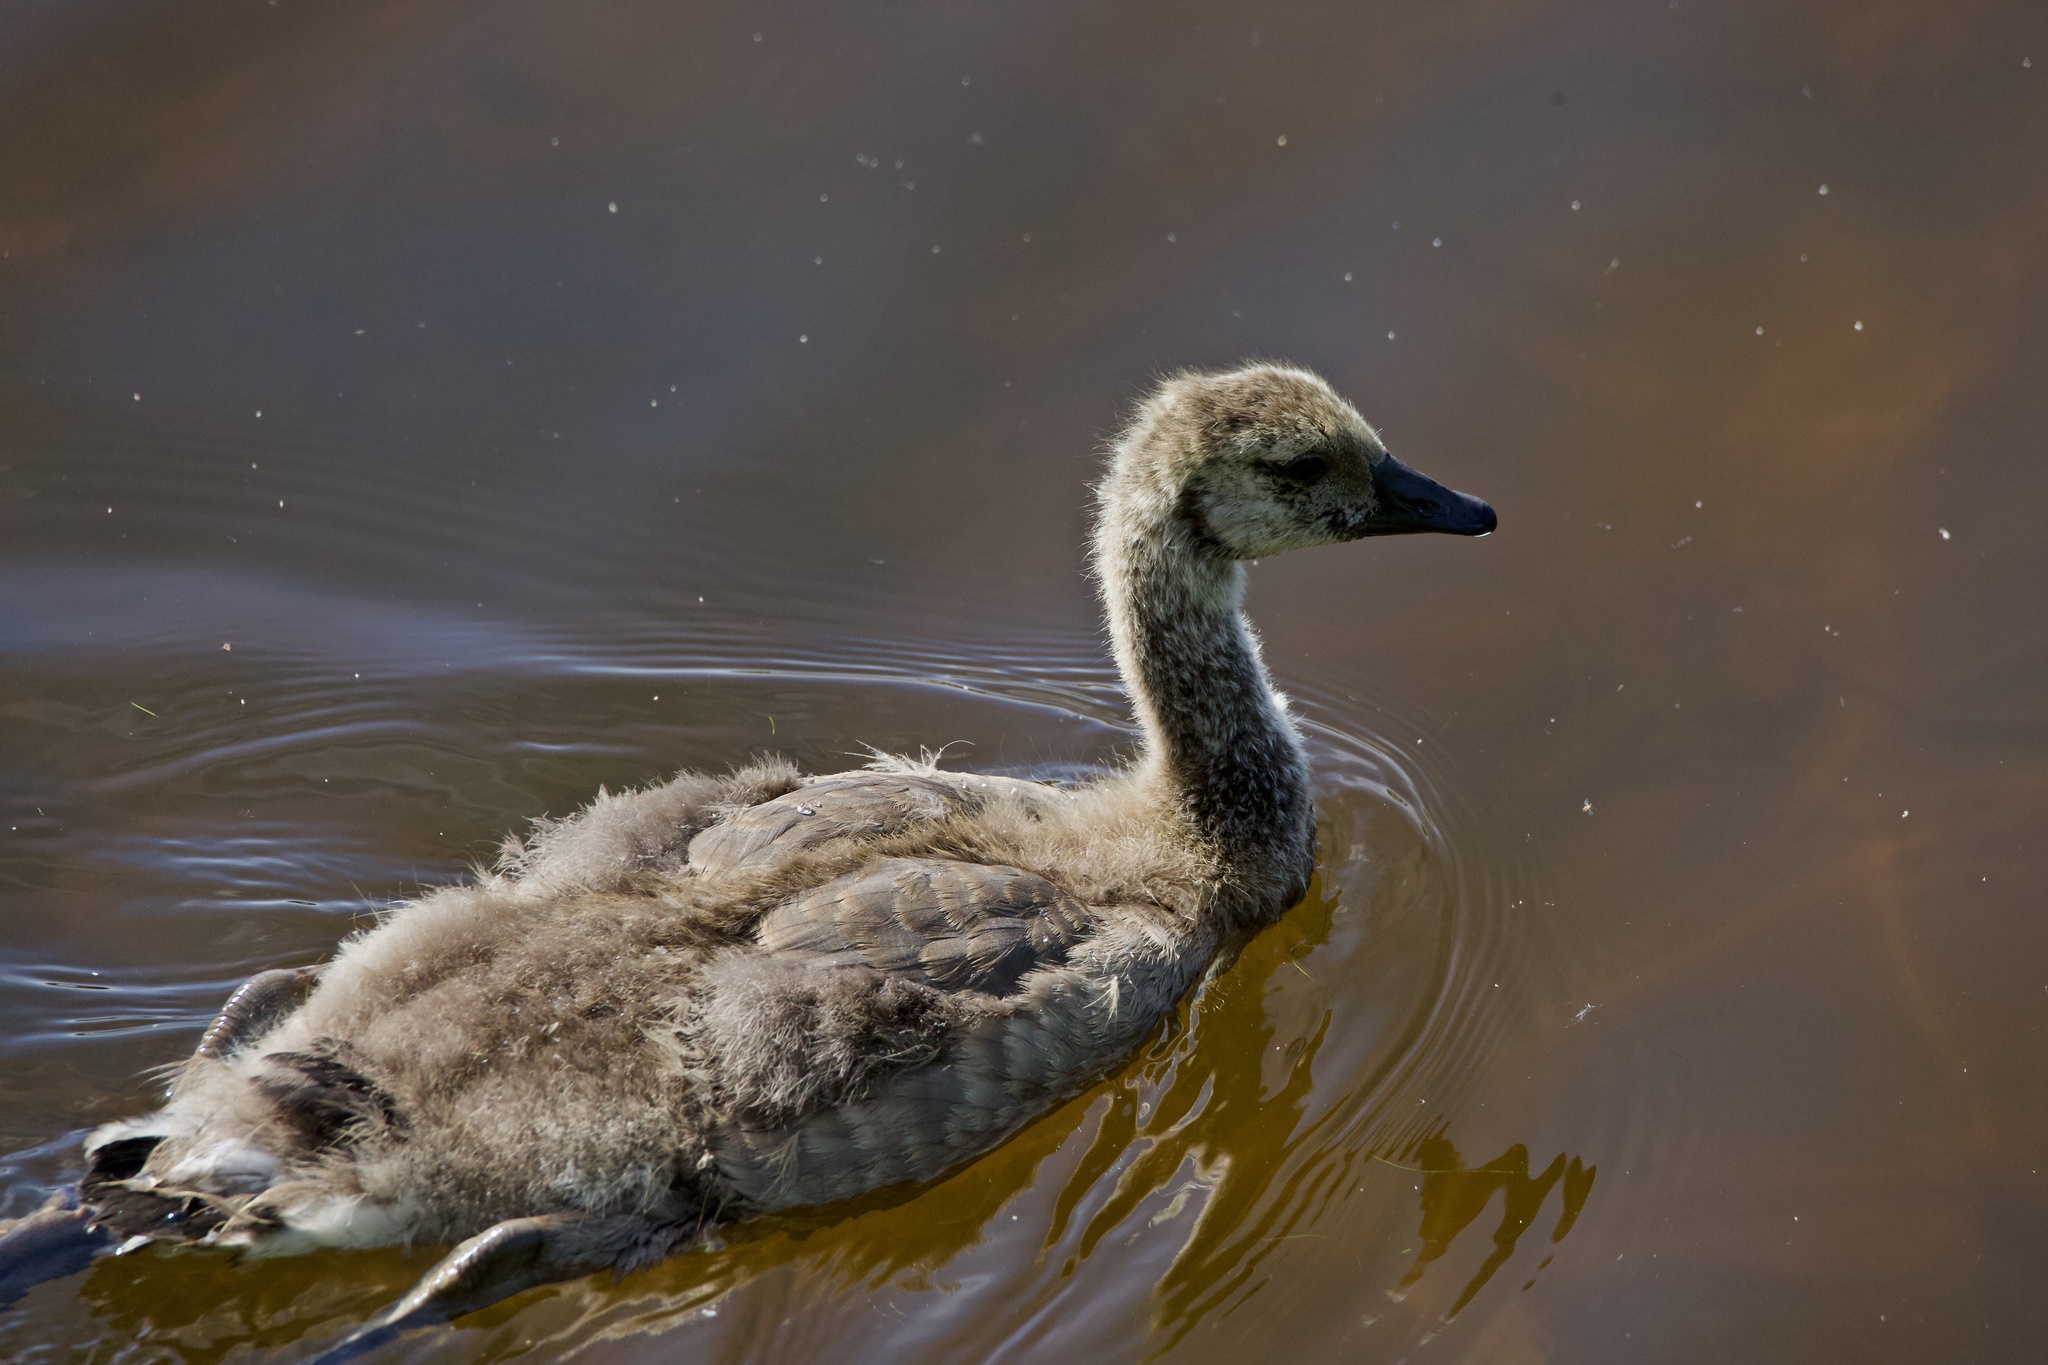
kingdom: Animalia
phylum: Chordata
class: Aves
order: Anseriformes
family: Anatidae
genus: Branta
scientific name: Branta canadensis
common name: Canada goose
